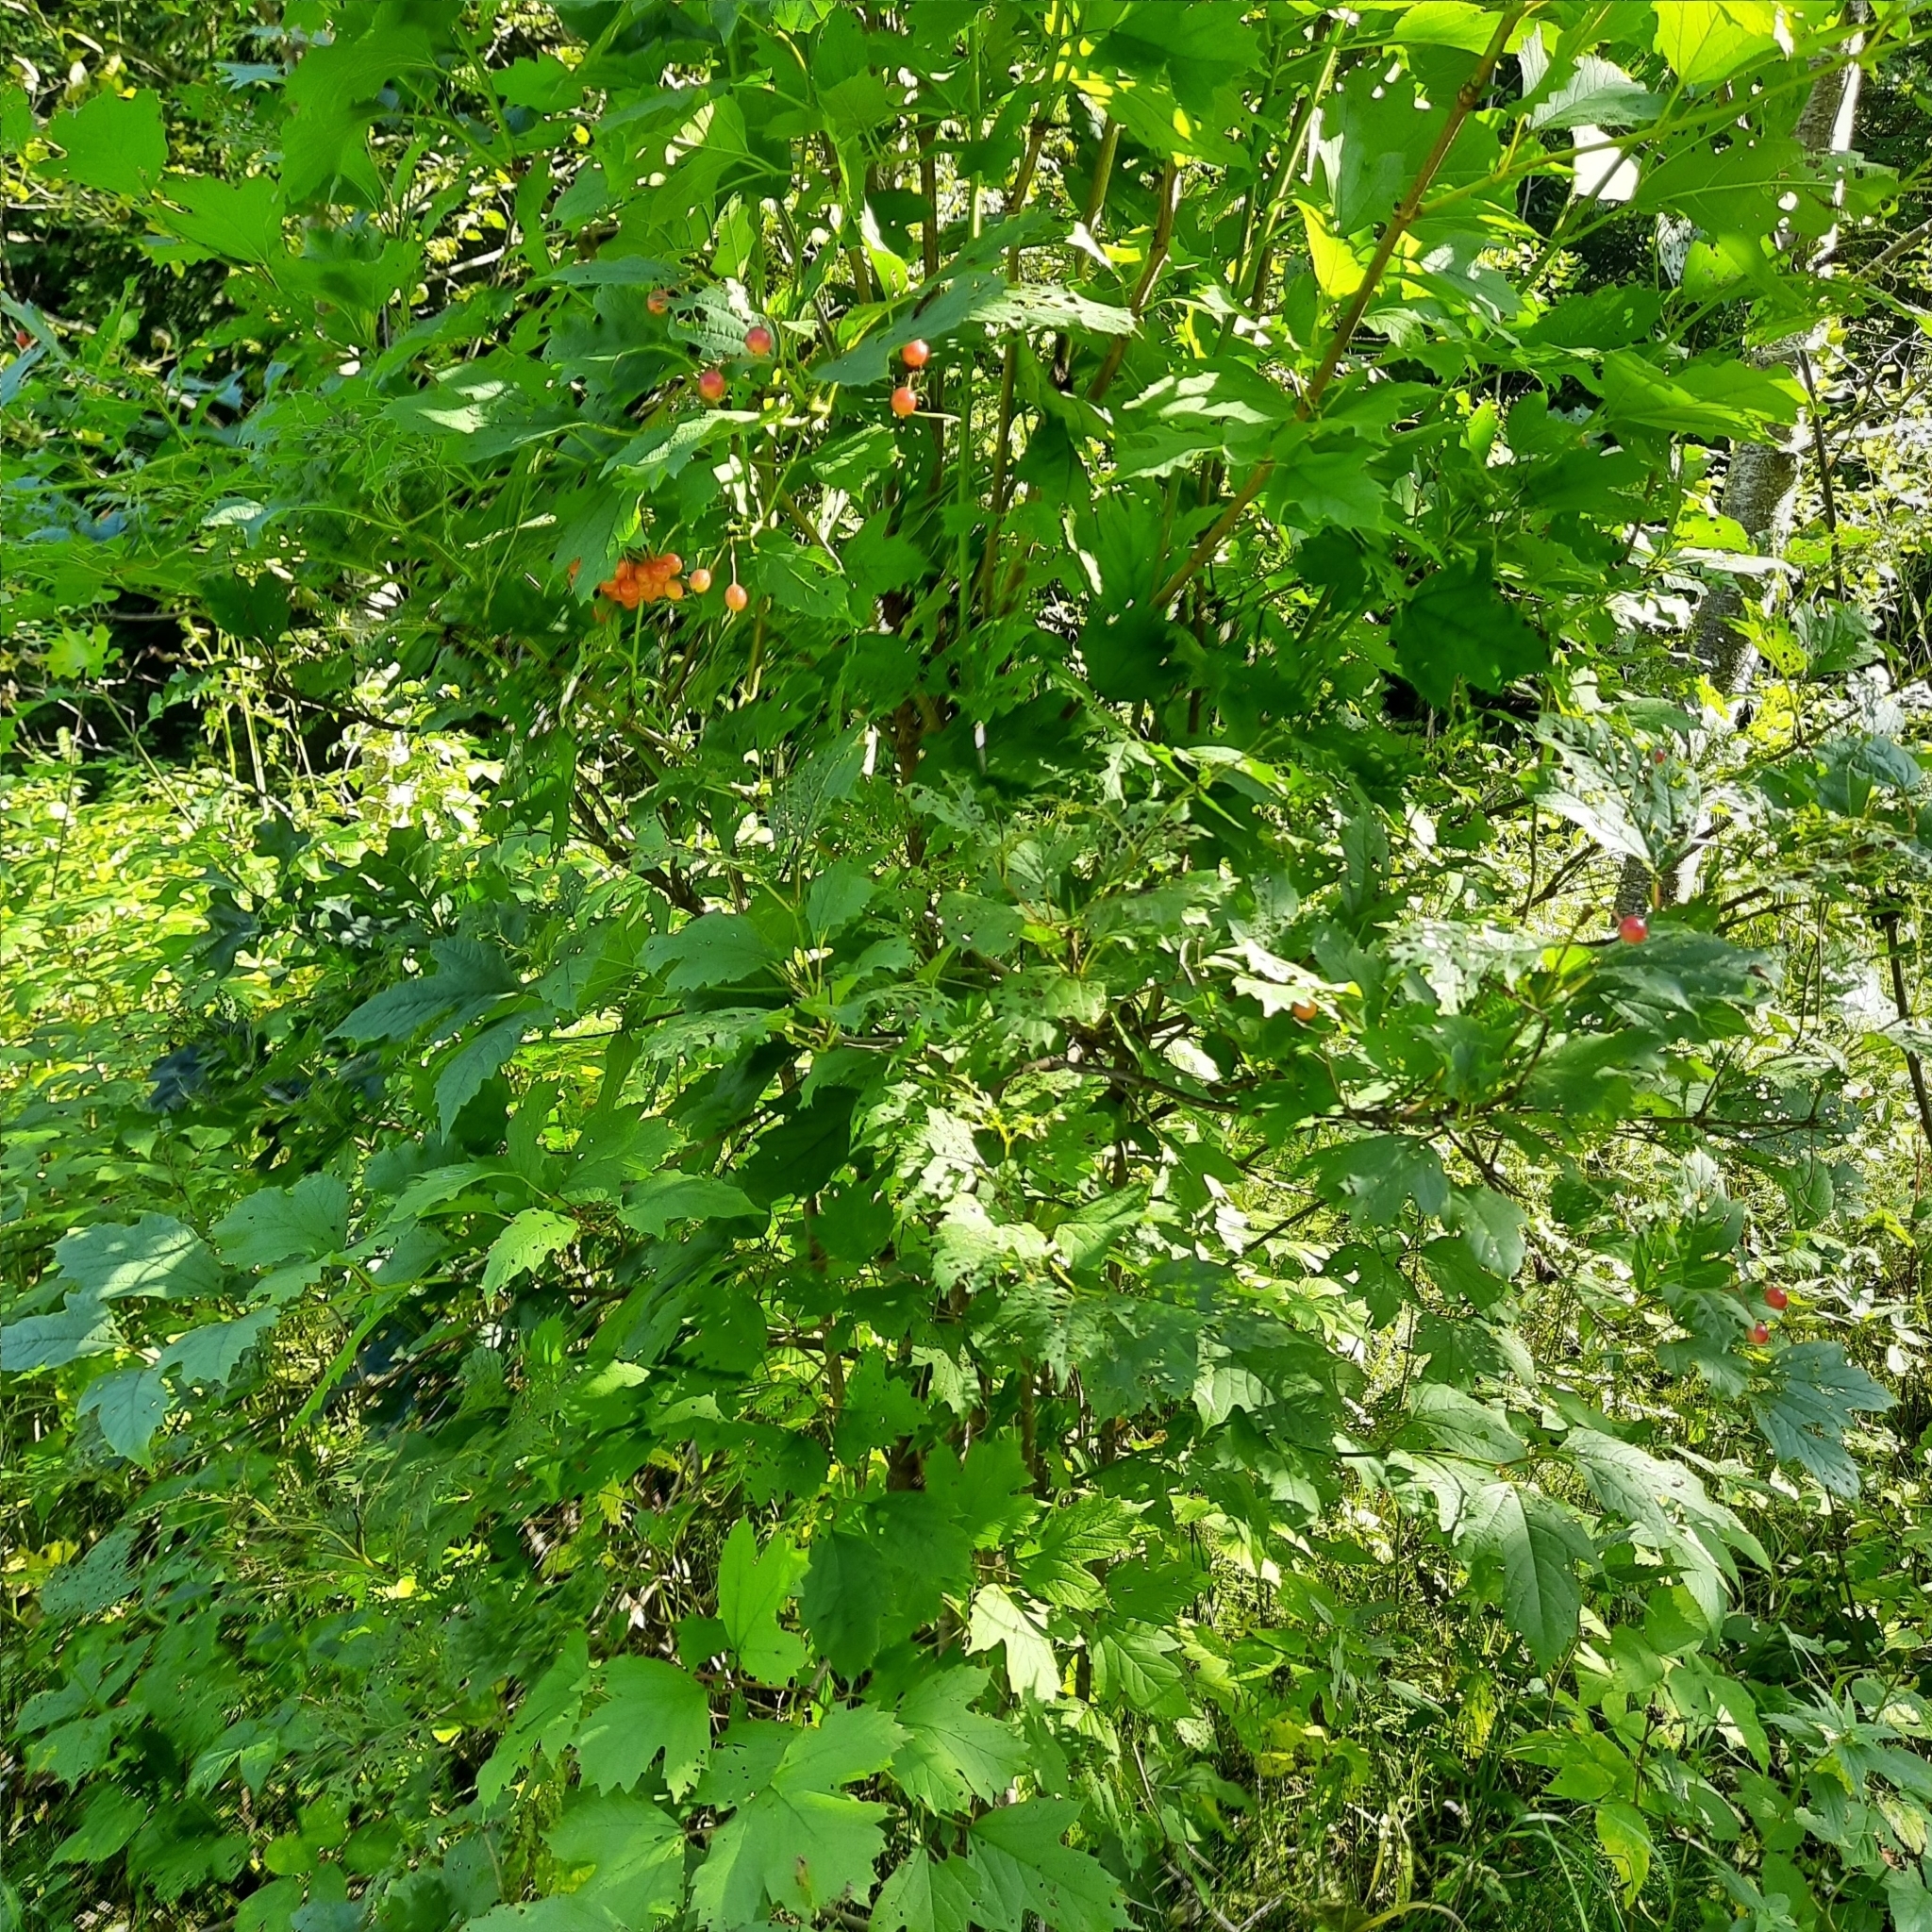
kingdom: Plantae
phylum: Tracheophyta
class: Magnoliopsida
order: Dipsacales
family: Viburnaceae
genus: Viburnum
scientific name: Viburnum opulus
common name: Guelder-rose
